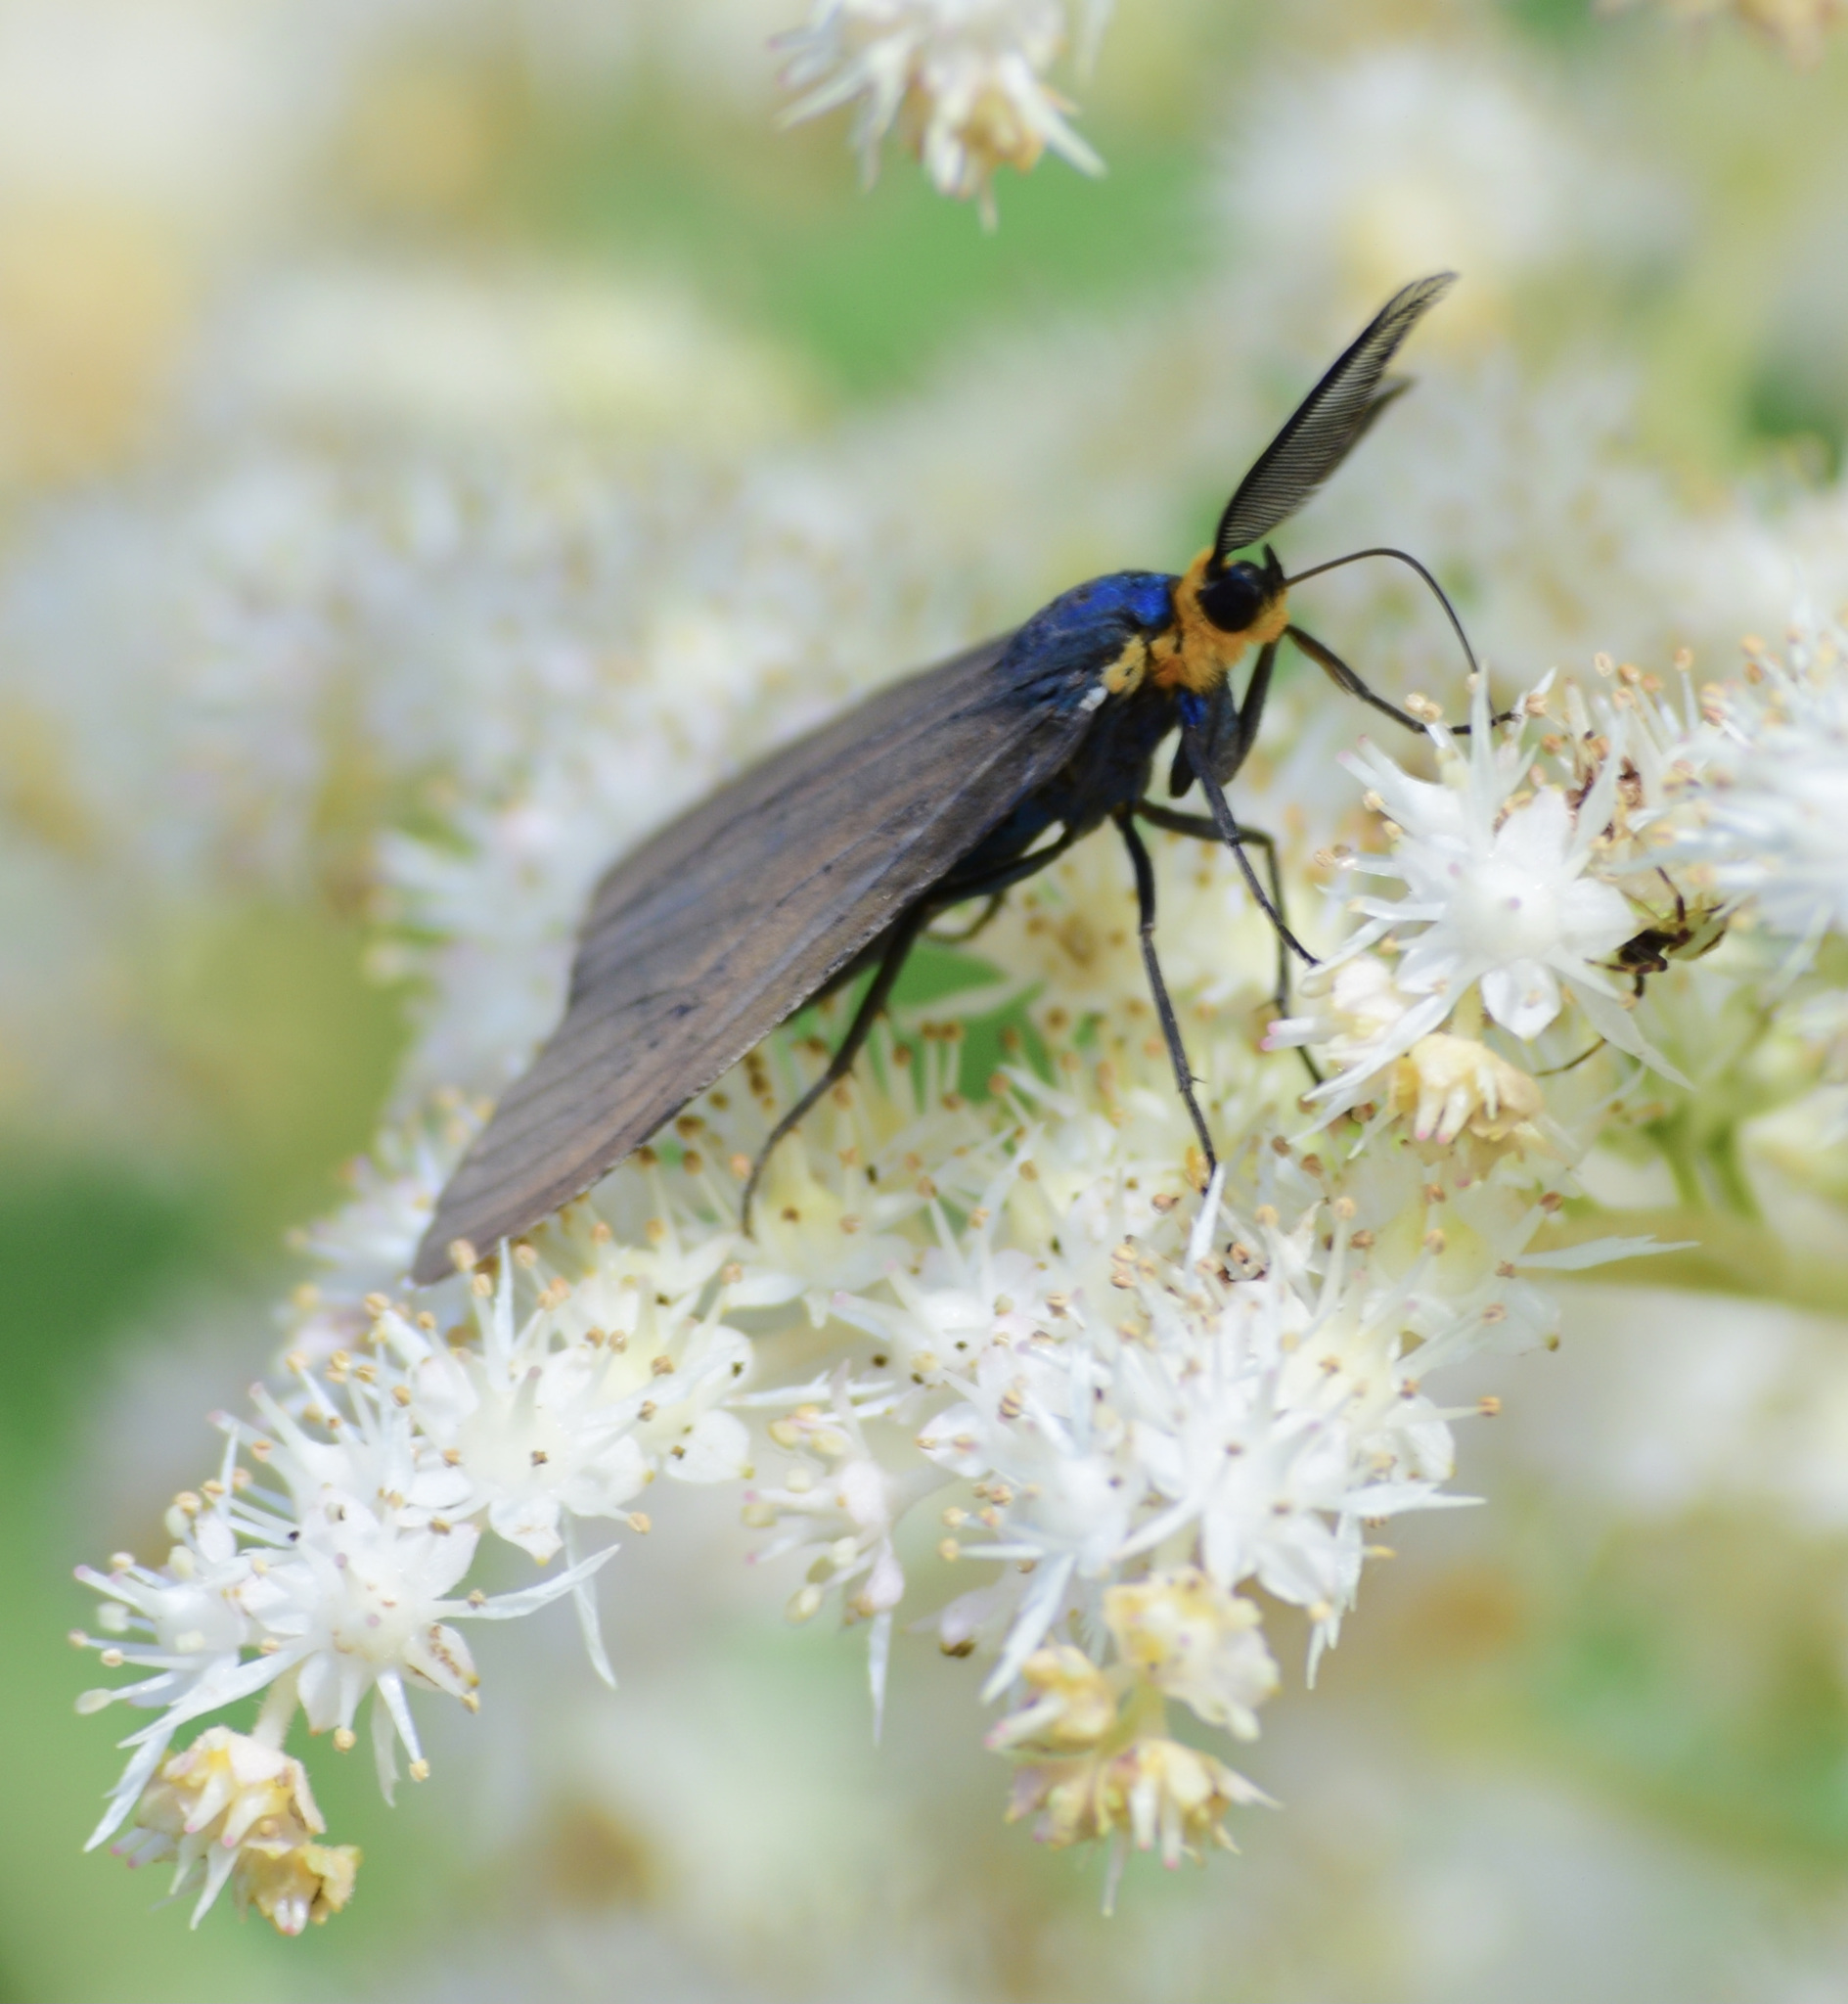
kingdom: Animalia
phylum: Arthropoda
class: Insecta
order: Lepidoptera
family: Erebidae
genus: Ctenucha
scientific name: Ctenucha virginica
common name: Virginia ctenucha moth
